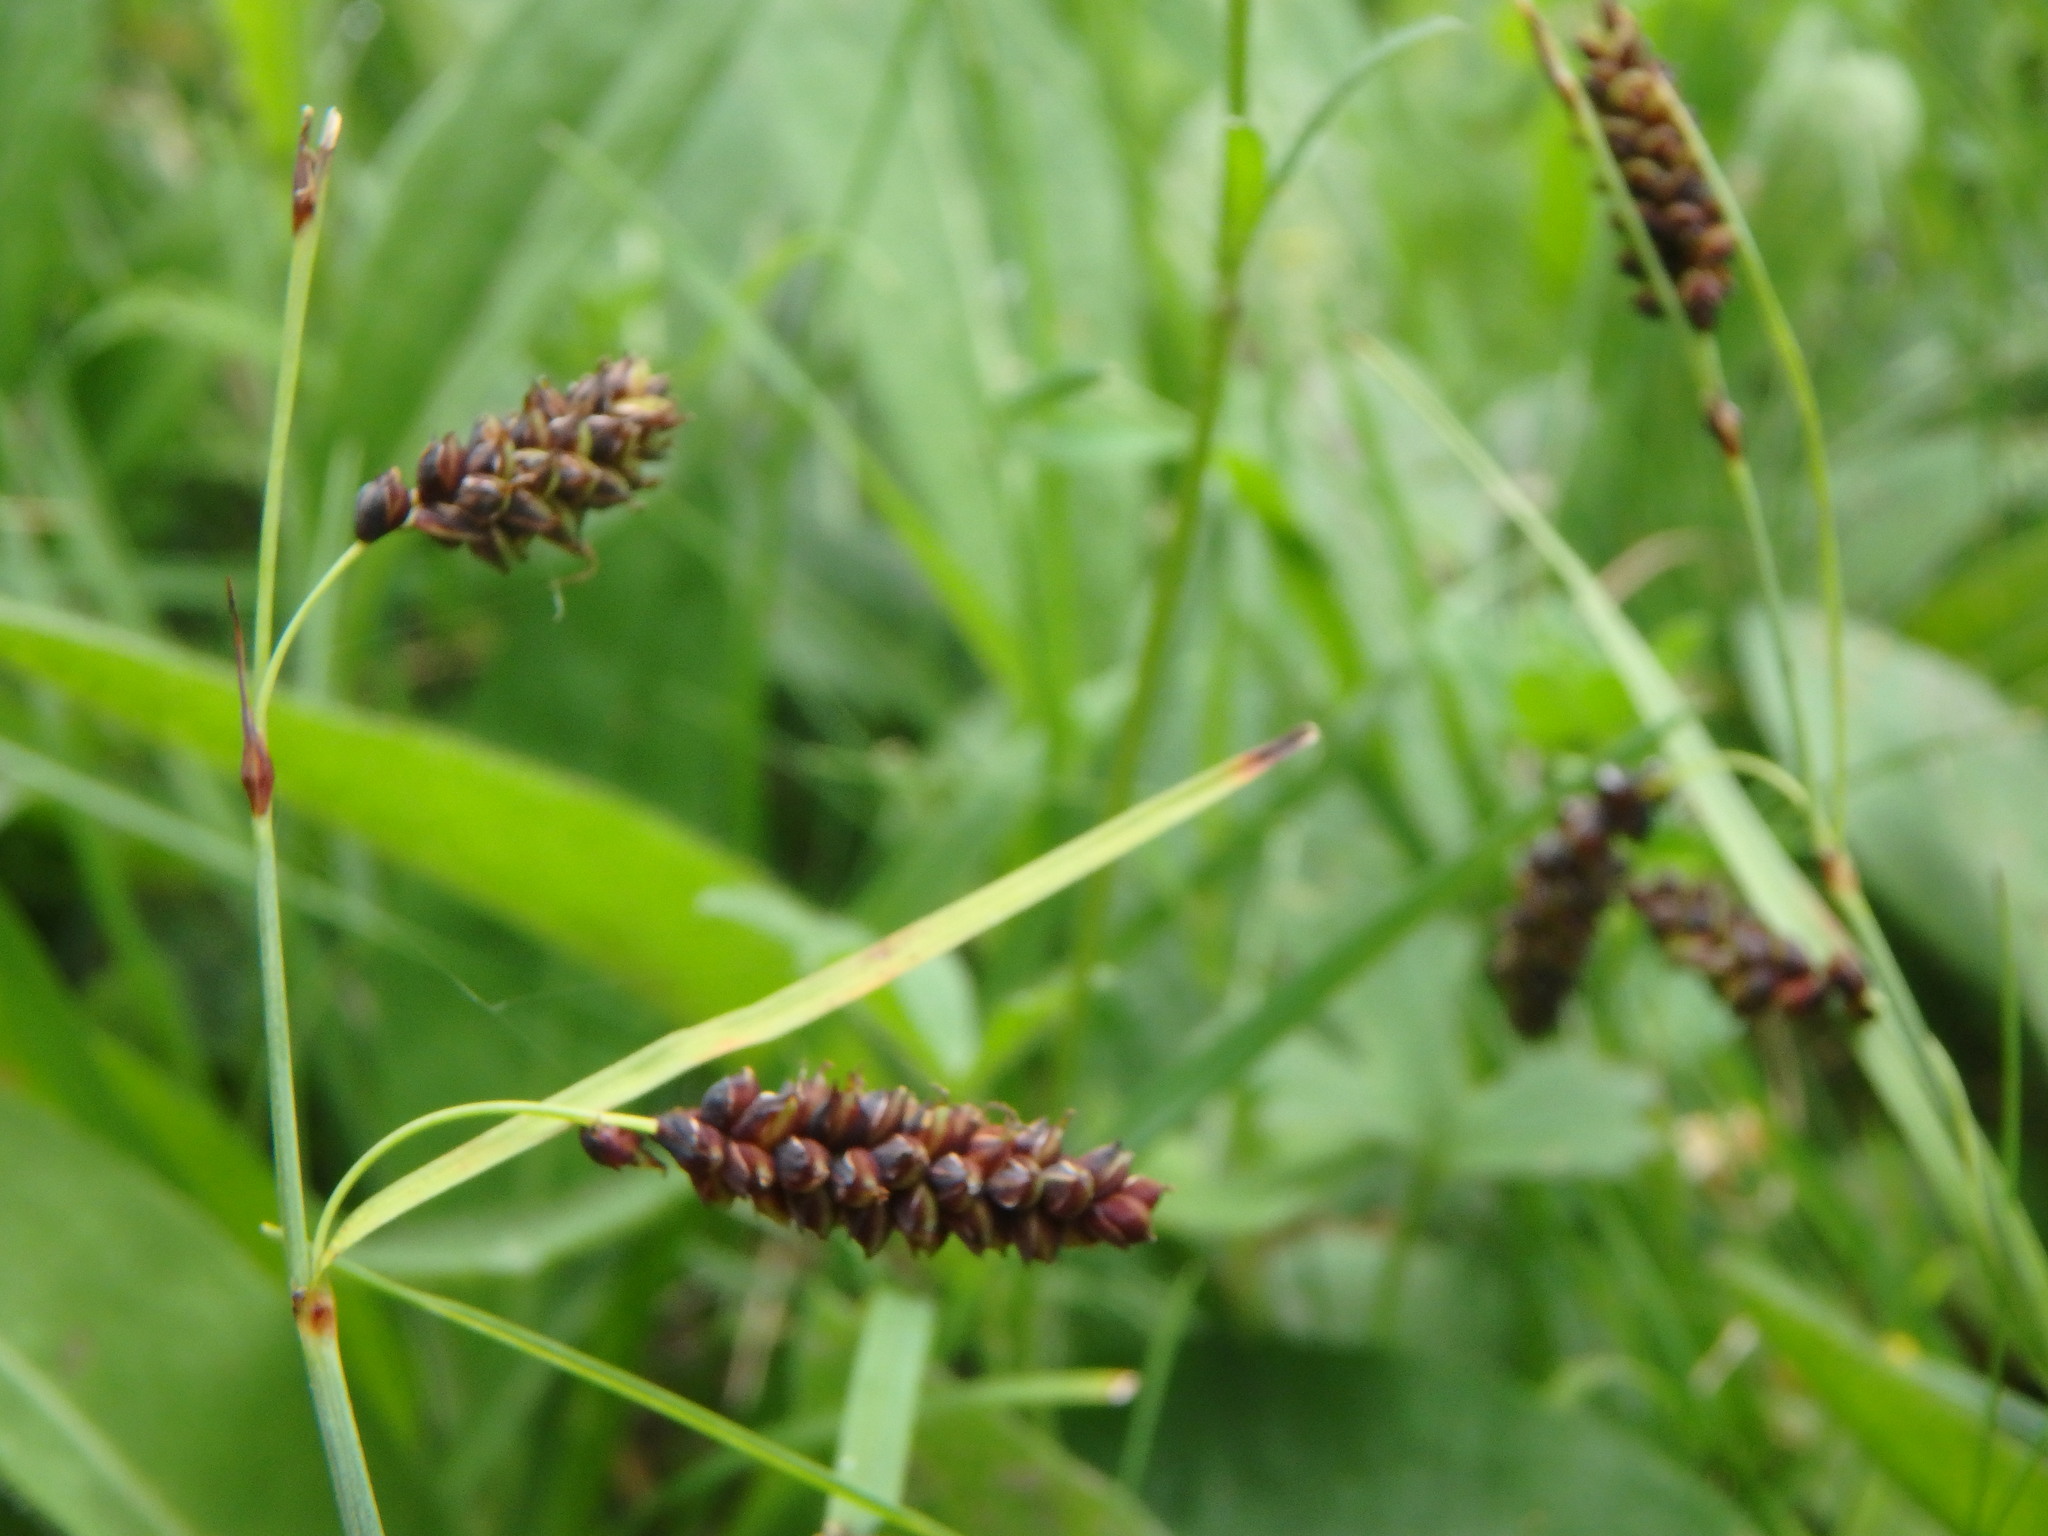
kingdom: Plantae
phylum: Tracheophyta
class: Liliopsida
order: Poales
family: Cyperaceae
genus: Carex
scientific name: Carex flacca
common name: Glaucous sedge
